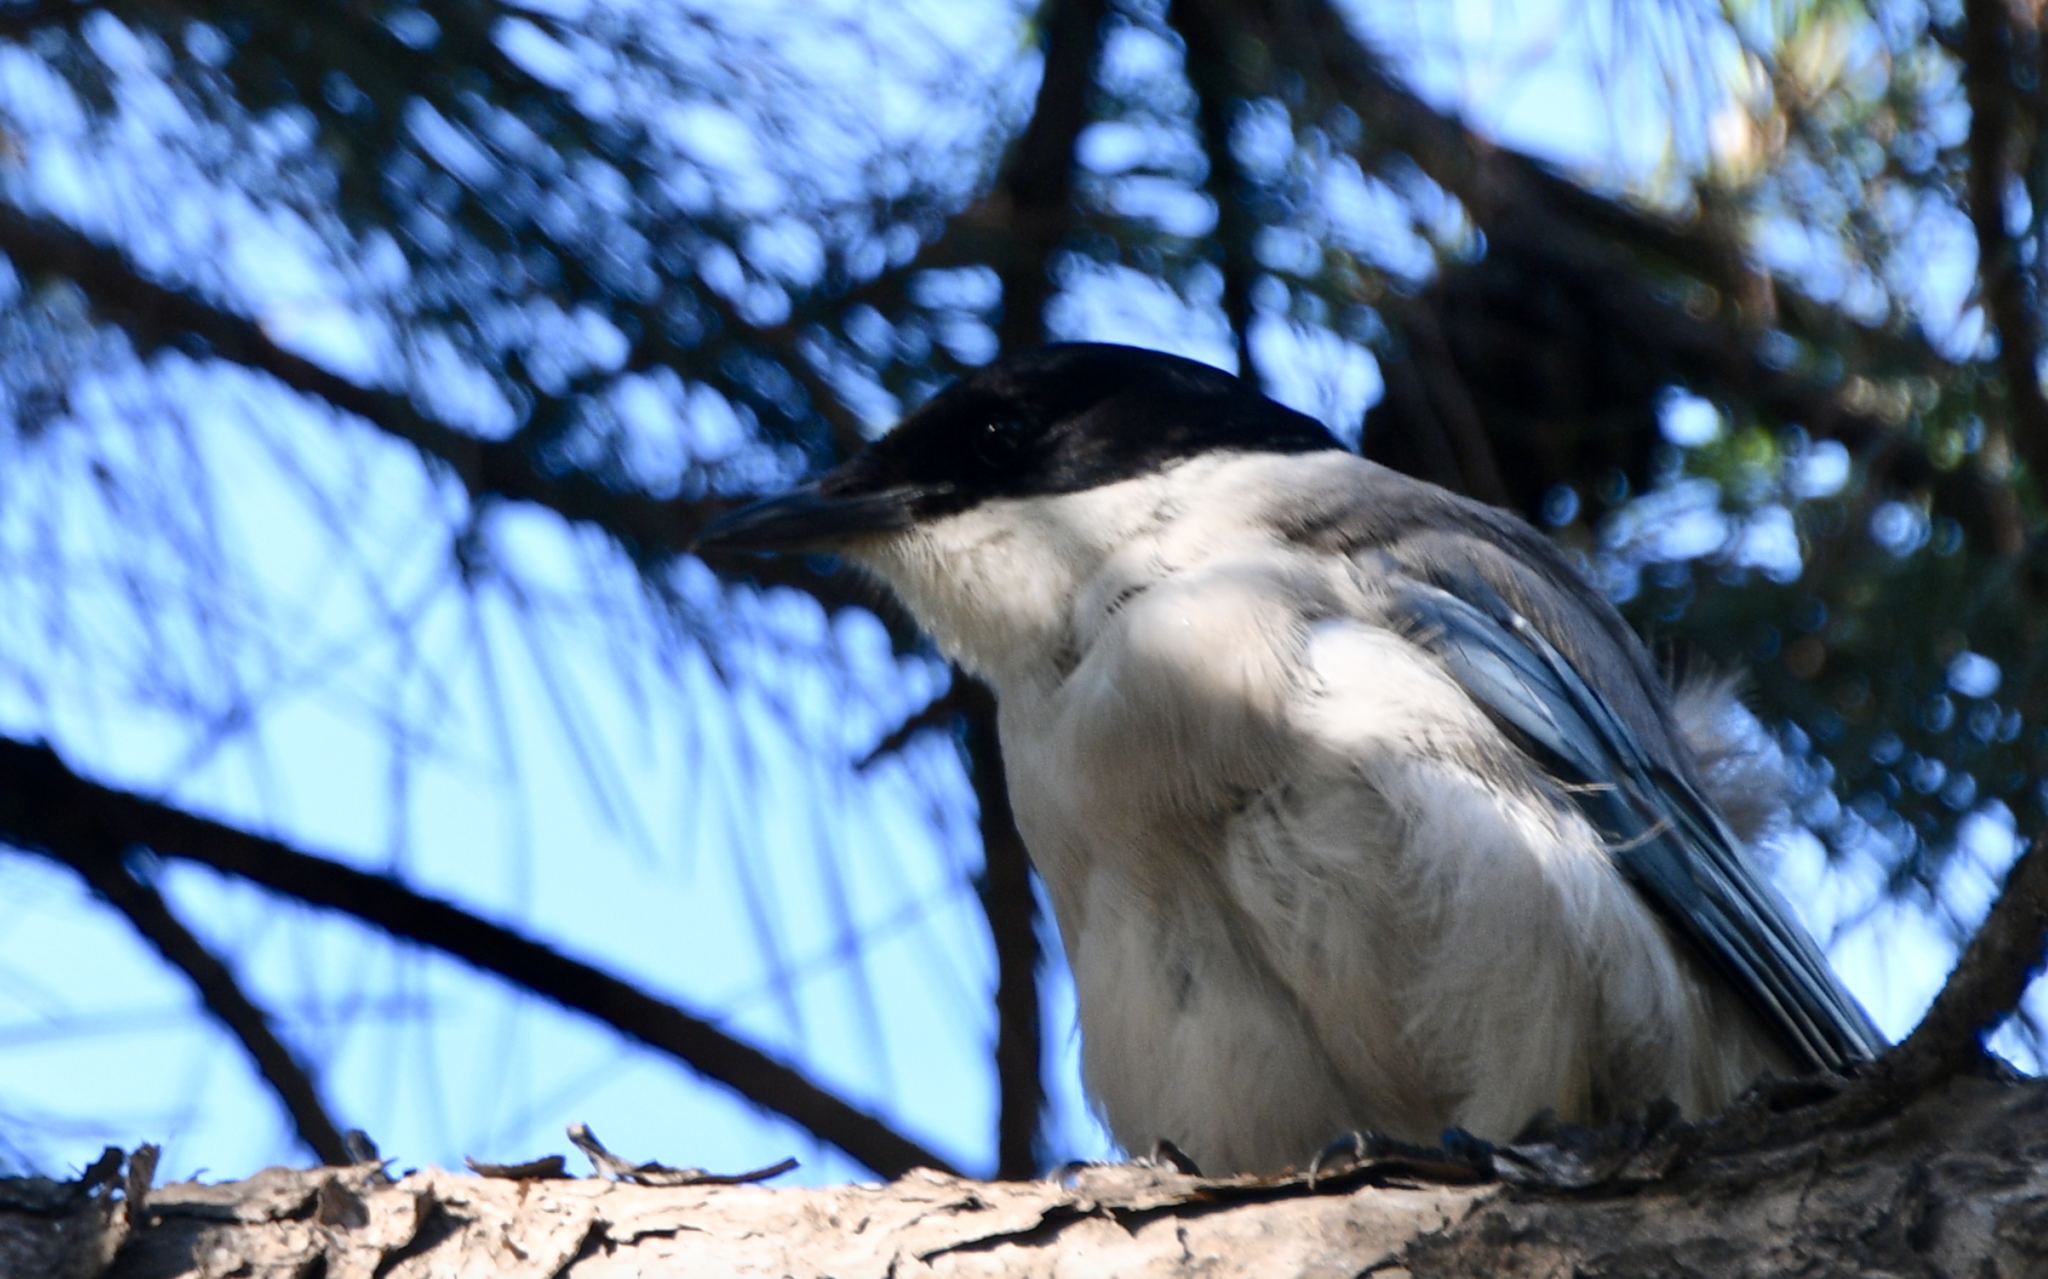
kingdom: Animalia
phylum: Chordata
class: Aves
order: Passeriformes
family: Corvidae
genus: Cyanopica
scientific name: Cyanopica cyanus
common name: Azure-winged magpie
